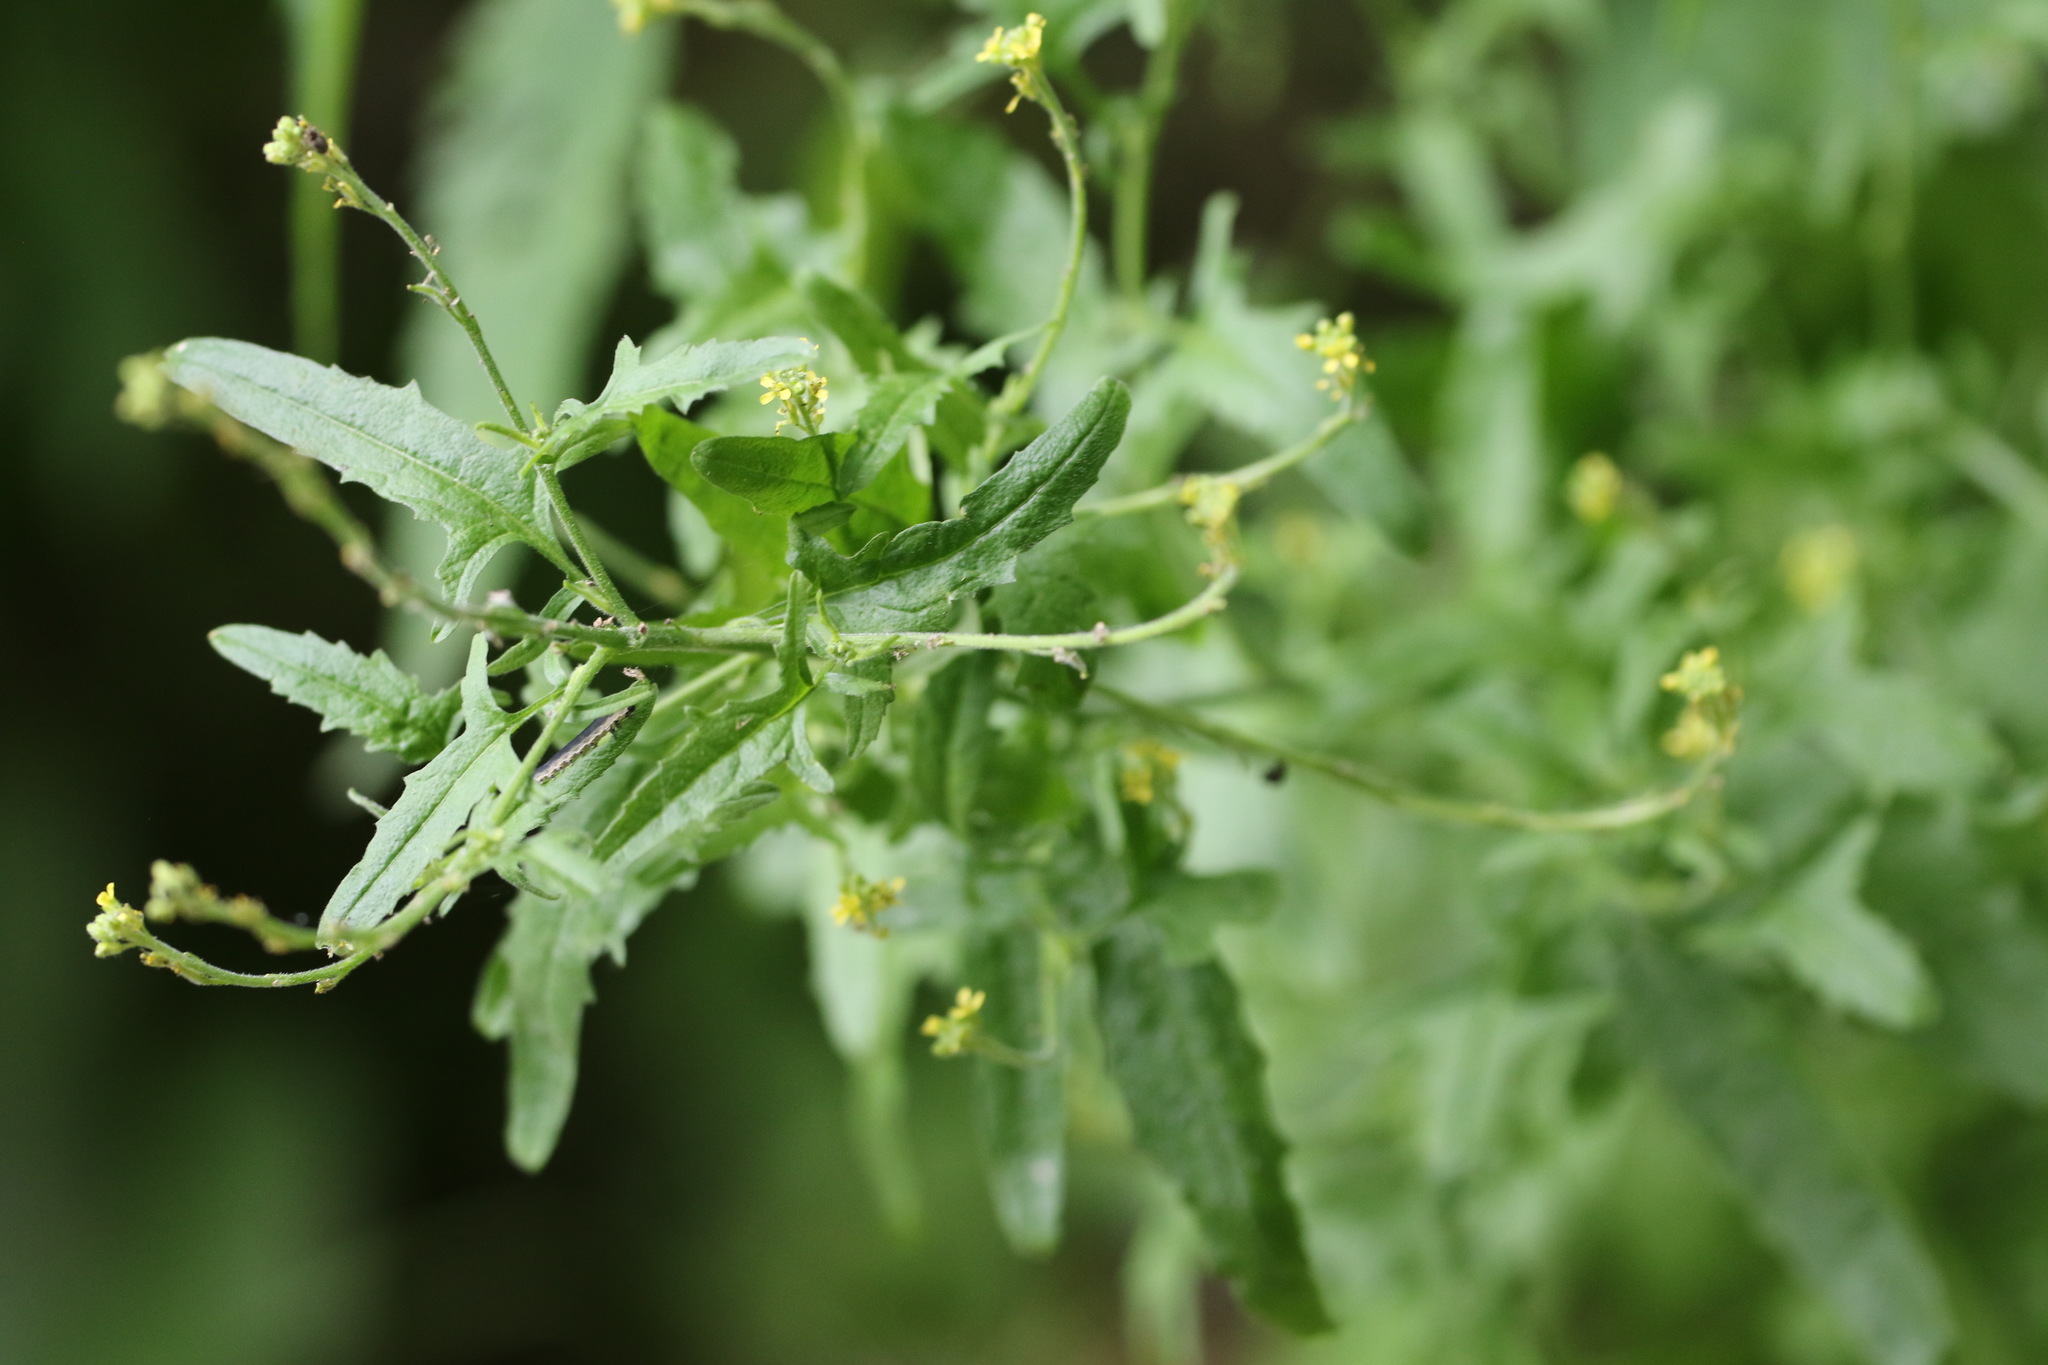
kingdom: Plantae
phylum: Tracheophyta
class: Magnoliopsida
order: Brassicales
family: Brassicaceae
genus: Sisymbrium
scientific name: Sisymbrium officinale
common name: Hedge mustard
